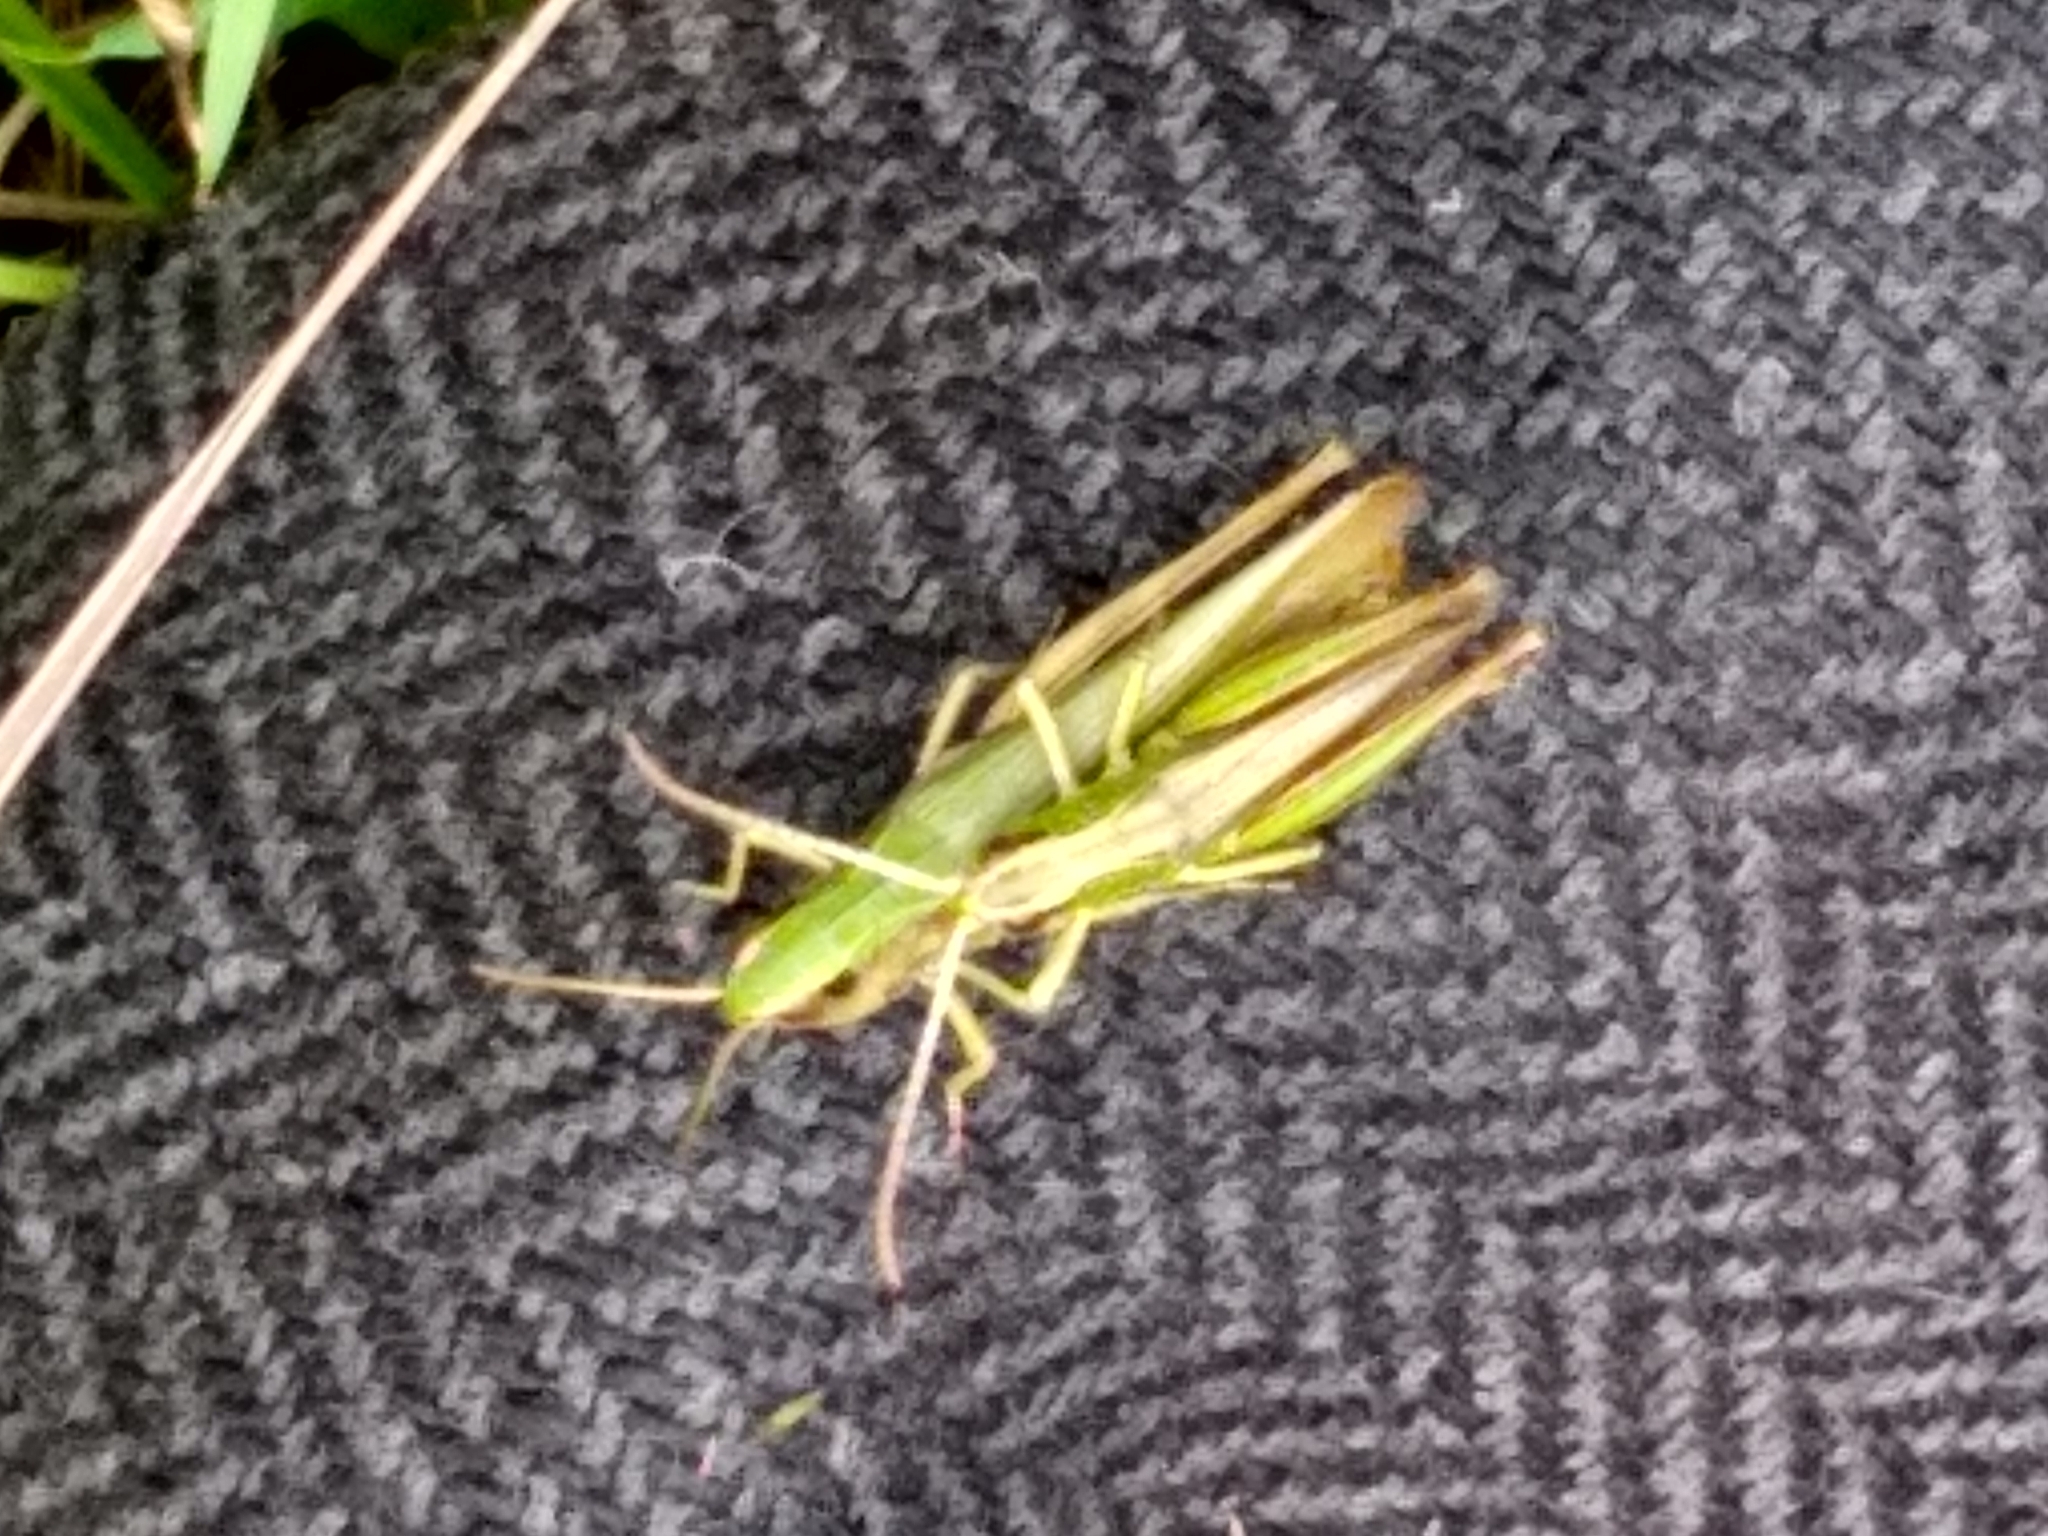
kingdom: Animalia
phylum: Arthropoda
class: Insecta
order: Orthoptera
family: Acrididae
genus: Pseudochorthippus
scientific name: Pseudochorthippus parallelus
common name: Meadow grasshopper
